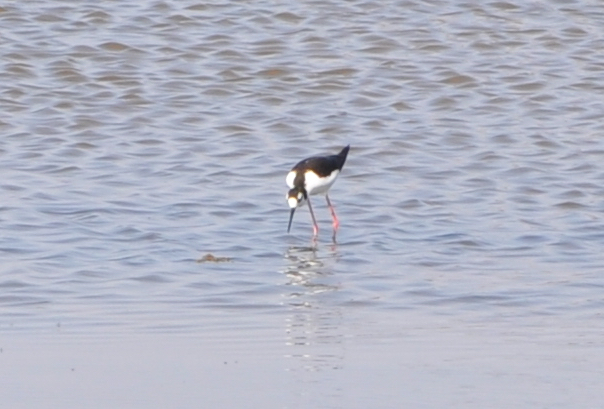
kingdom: Animalia
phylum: Chordata
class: Aves
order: Charadriiformes
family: Recurvirostridae
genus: Himantopus
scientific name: Himantopus mexicanus
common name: Black-necked stilt
